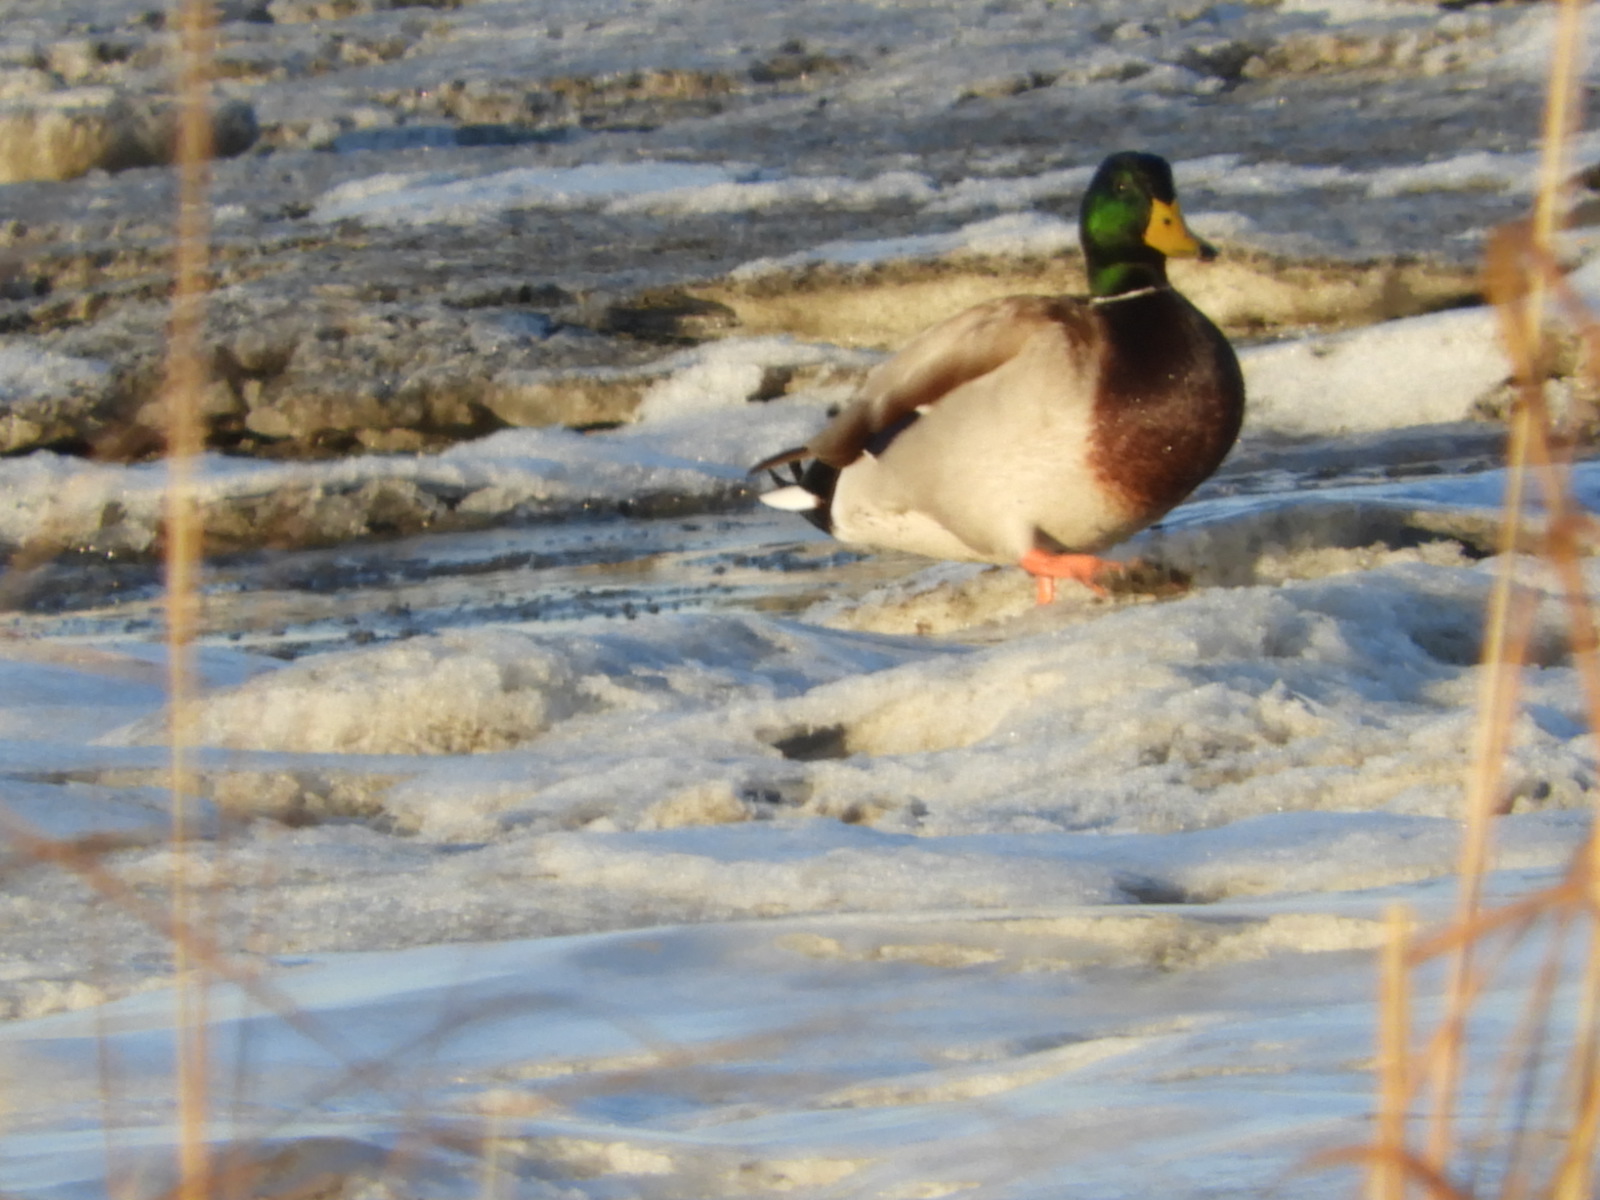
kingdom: Animalia
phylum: Chordata
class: Aves
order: Anseriformes
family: Anatidae
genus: Anas
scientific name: Anas platyrhynchos
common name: Mallard
